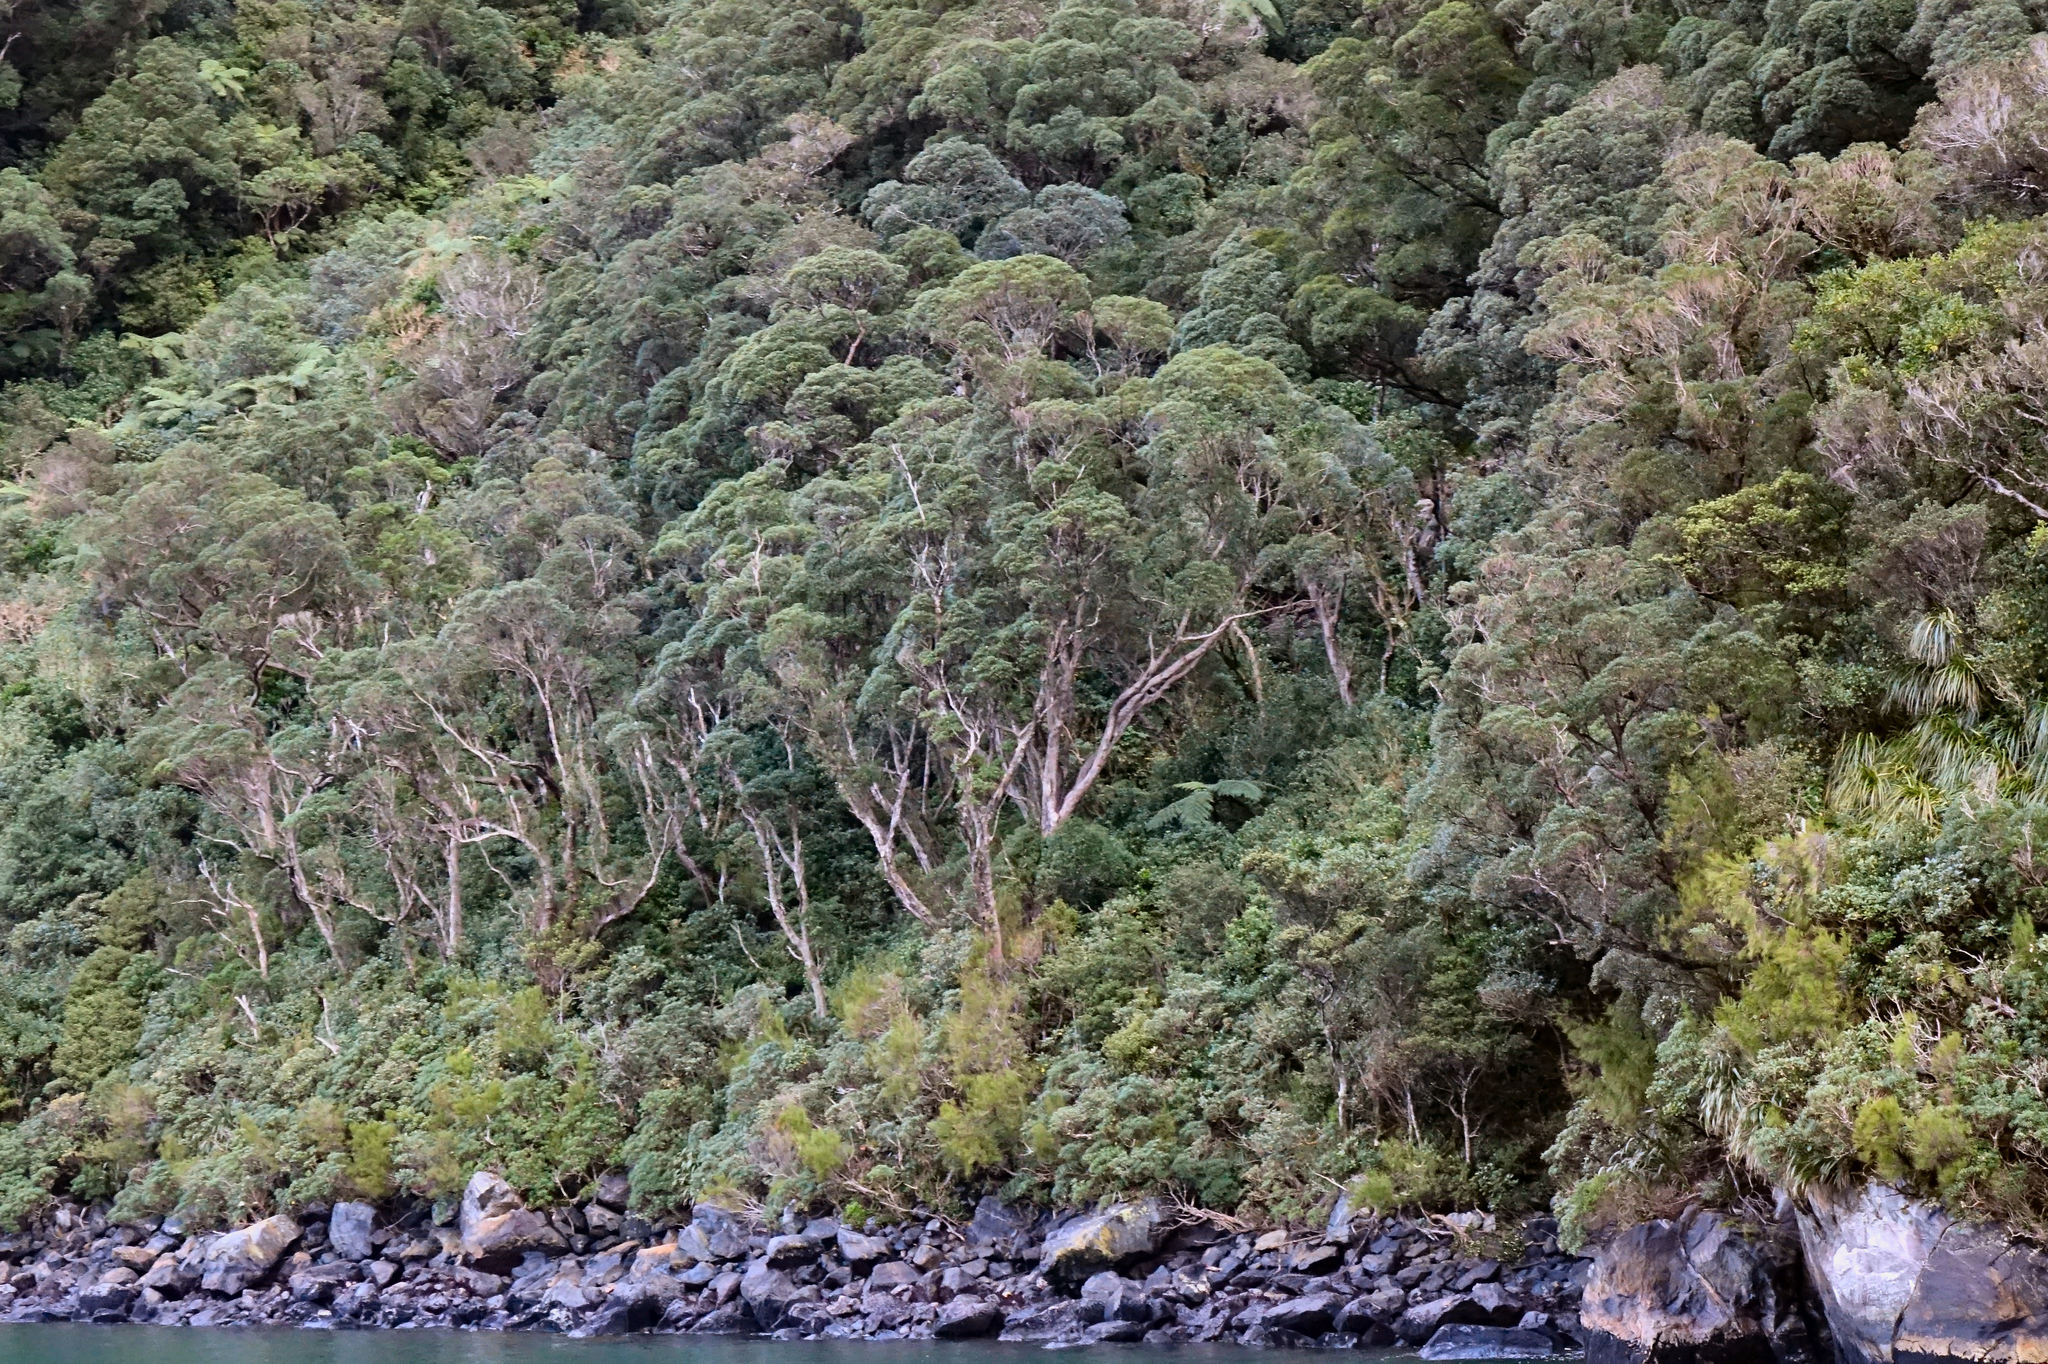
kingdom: Plantae
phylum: Tracheophyta
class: Magnoliopsida
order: Myrtales
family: Myrtaceae
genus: Metrosideros
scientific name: Metrosideros umbellata
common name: Southern rata
